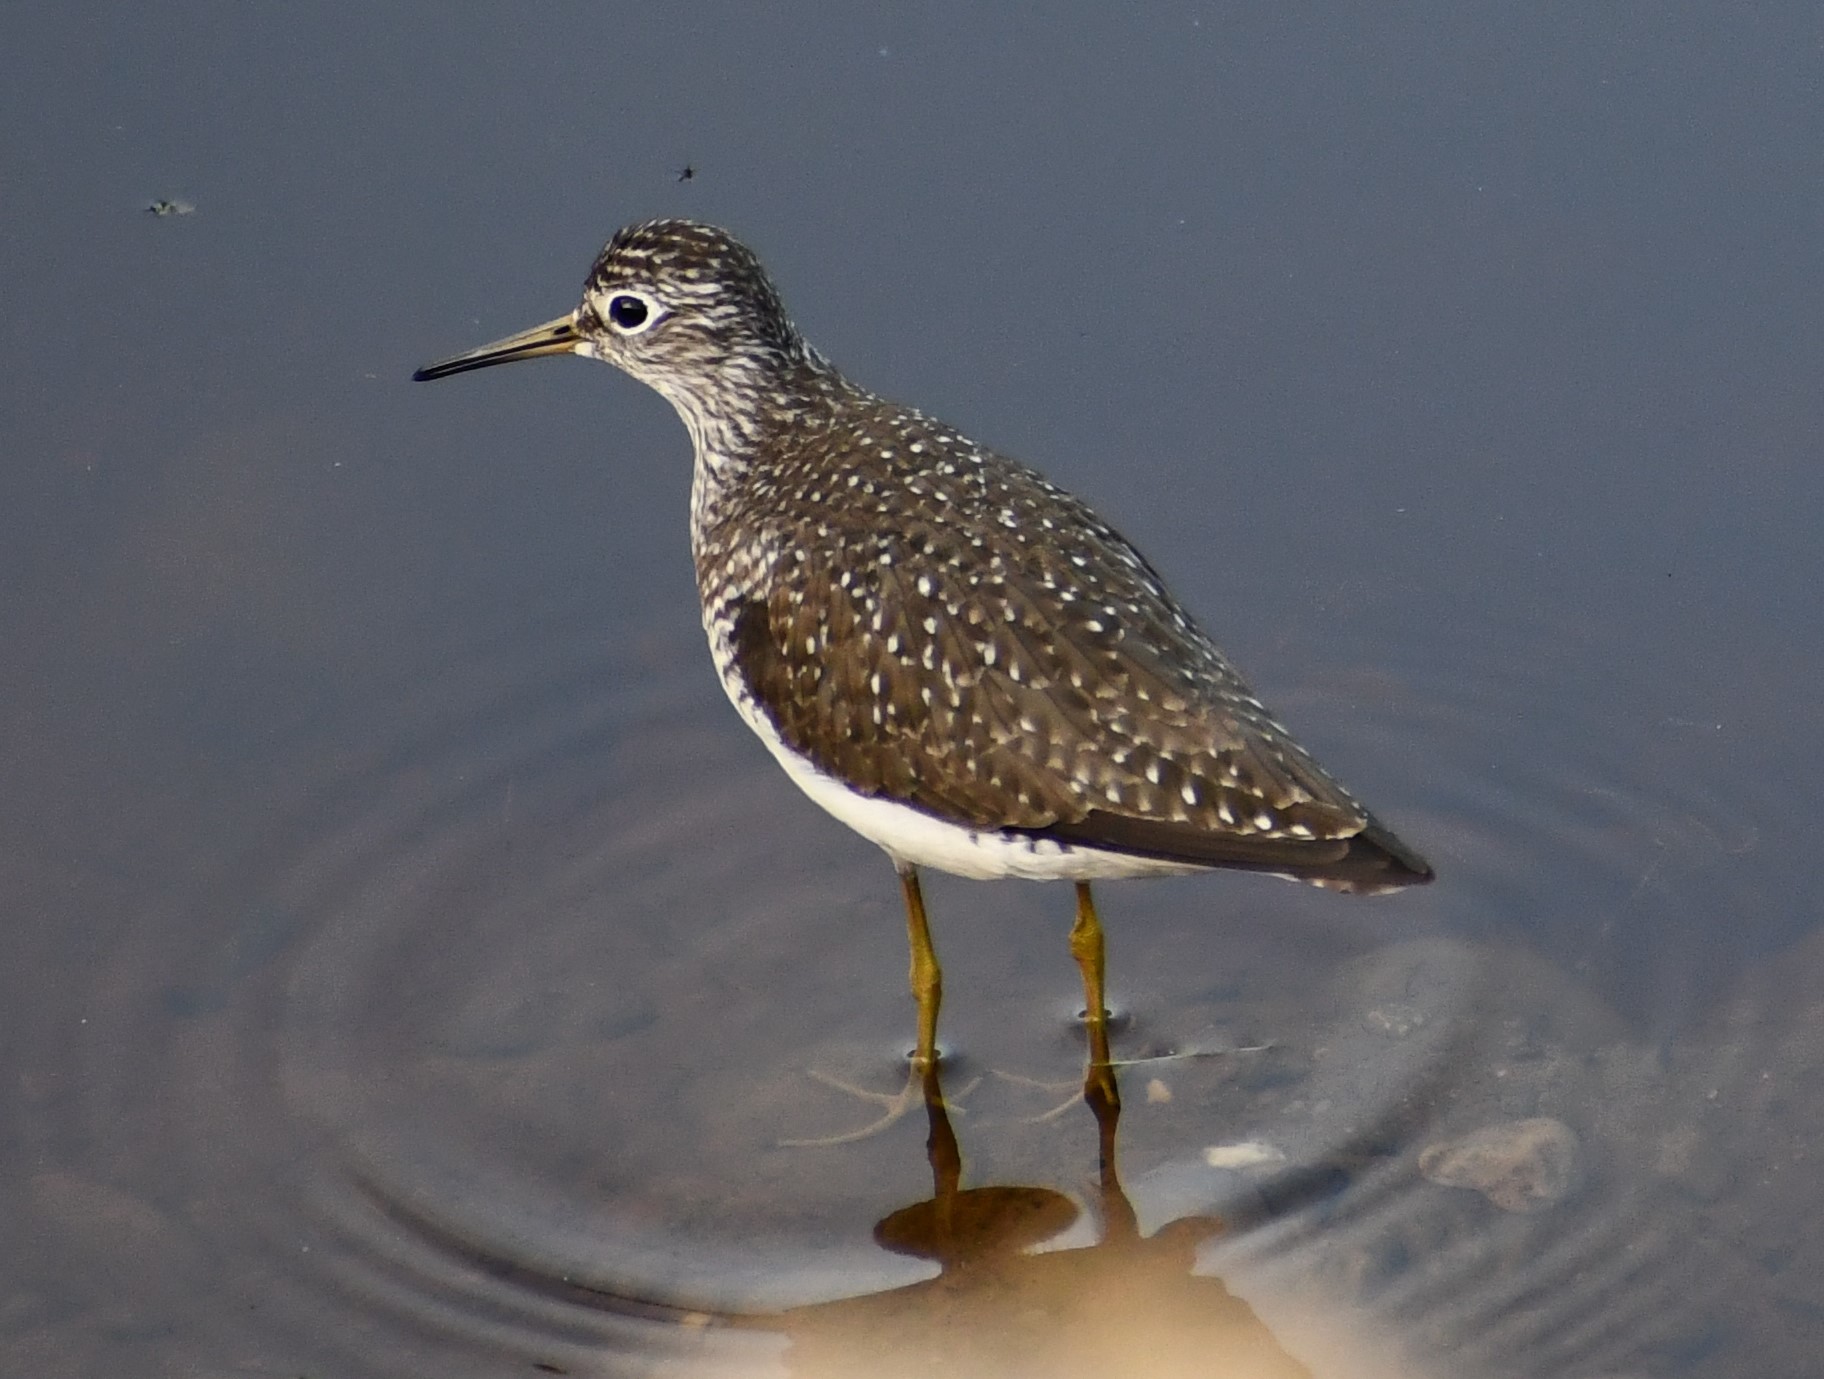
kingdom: Animalia
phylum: Chordata
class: Aves
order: Charadriiformes
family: Scolopacidae
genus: Tringa
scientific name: Tringa solitaria
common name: Solitary sandpiper
